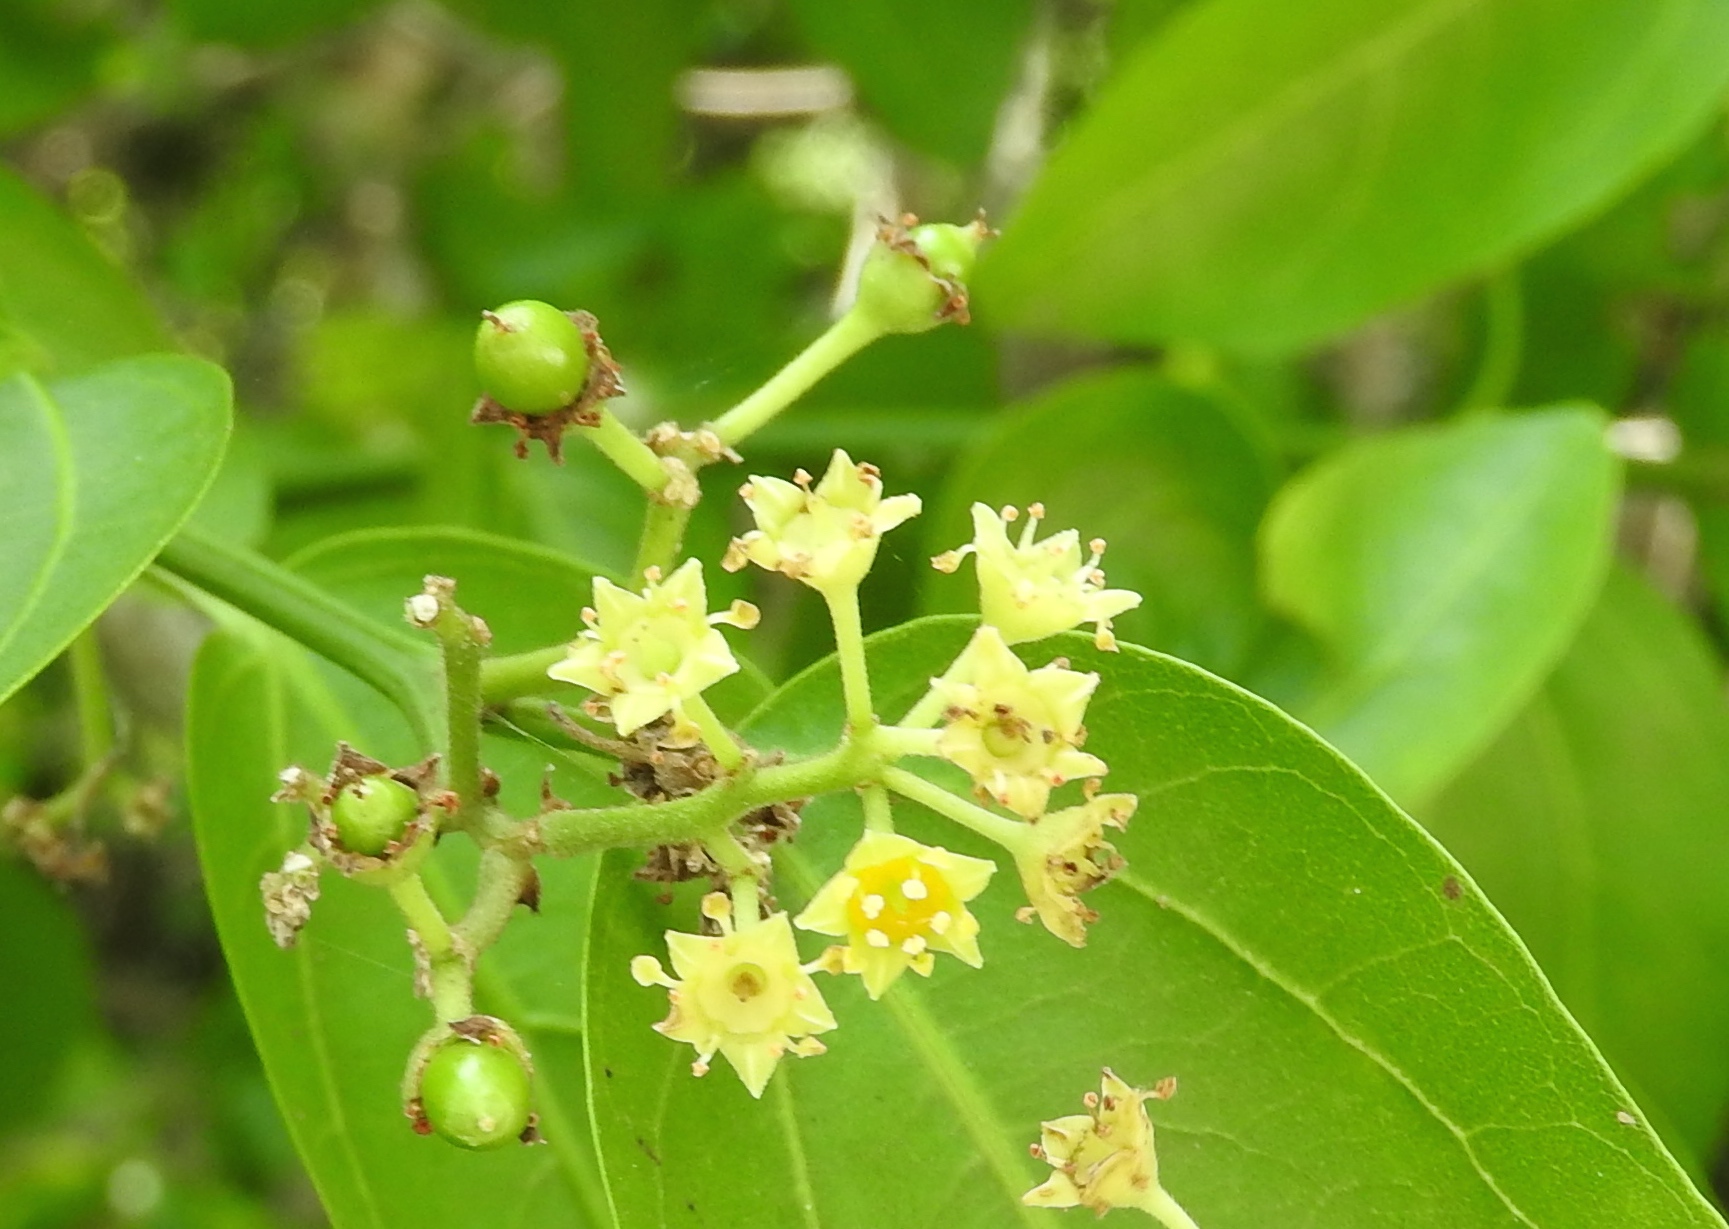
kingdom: Plantae
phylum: Tracheophyta
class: Magnoliopsida
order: Rosales
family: Rhamnaceae
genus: Sarcomphalus
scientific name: Sarcomphalus amole
